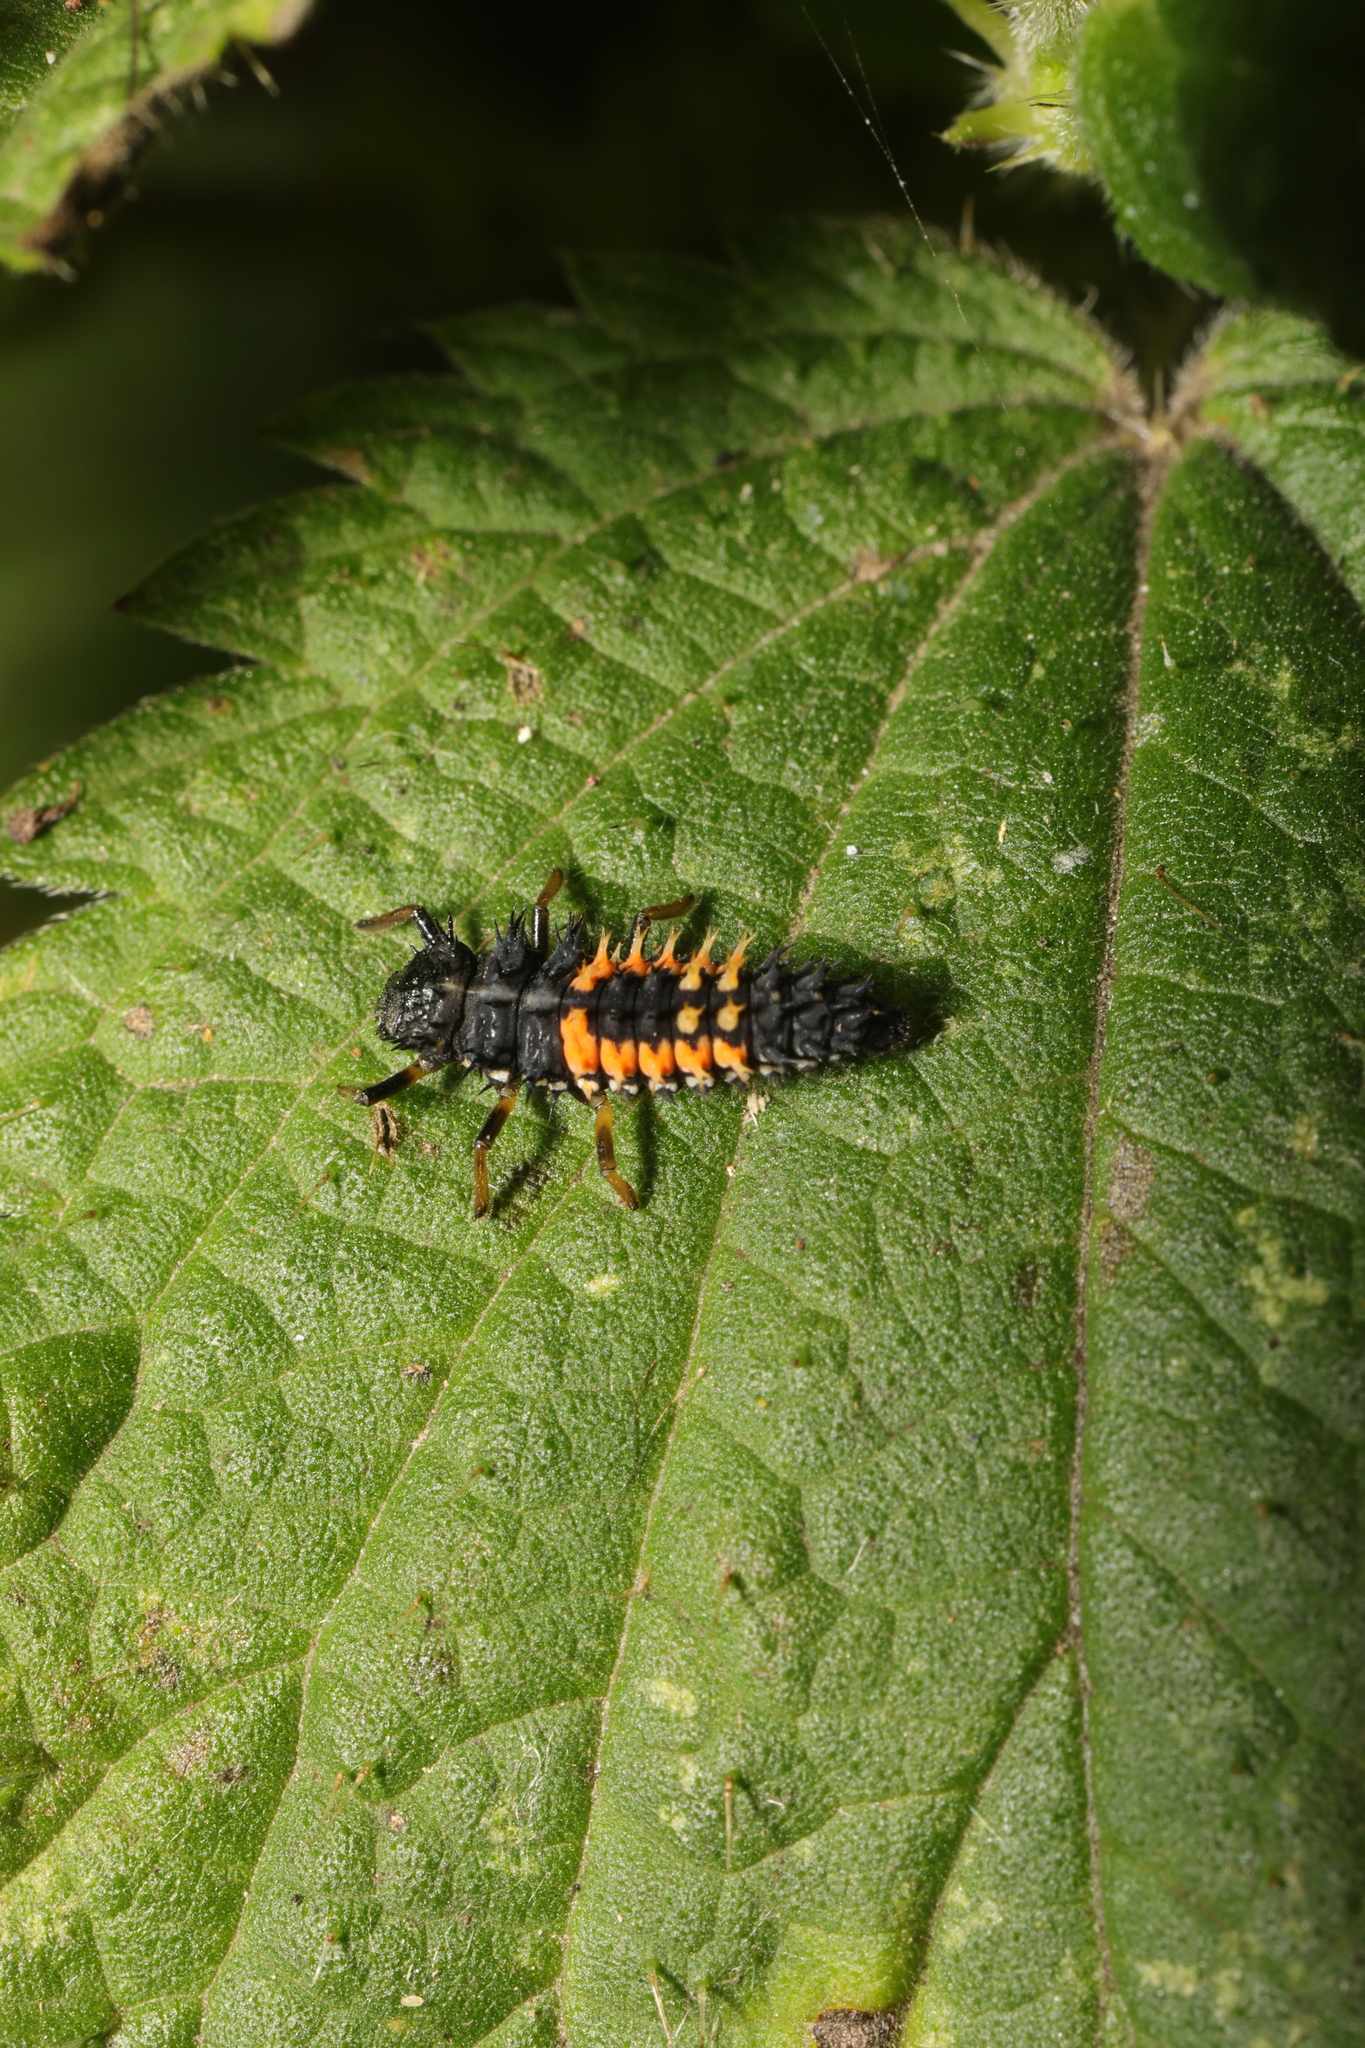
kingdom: Animalia
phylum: Arthropoda
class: Insecta
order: Coleoptera
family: Coccinellidae
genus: Harmonia
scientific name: Harmonia axyridis
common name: Harlequin ladybird
